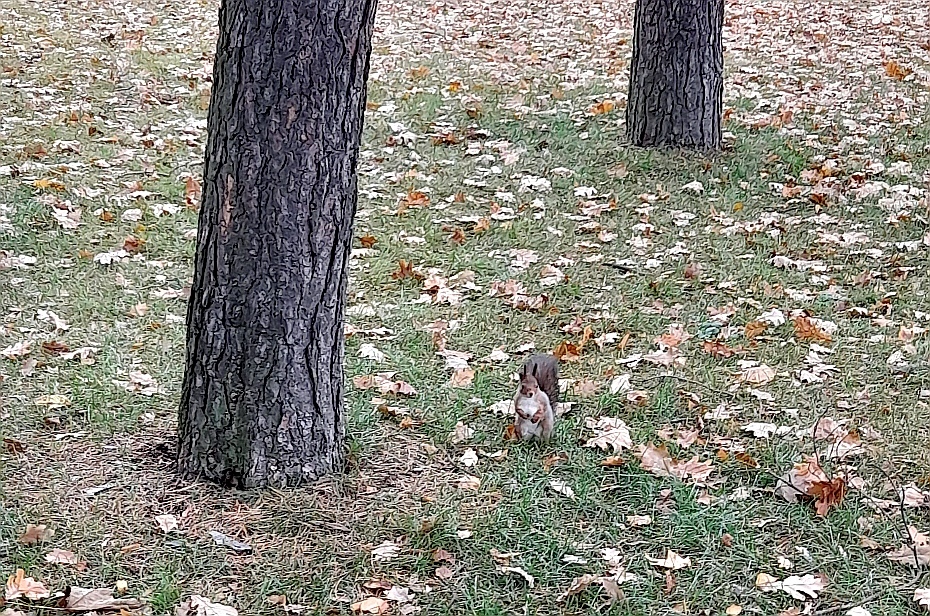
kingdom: Animalia
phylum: Chordata
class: Mammalia
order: Rodentia
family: Sciuridae
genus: Sciurus
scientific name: Sciurus vulgaris
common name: Eurasian red squirrel
